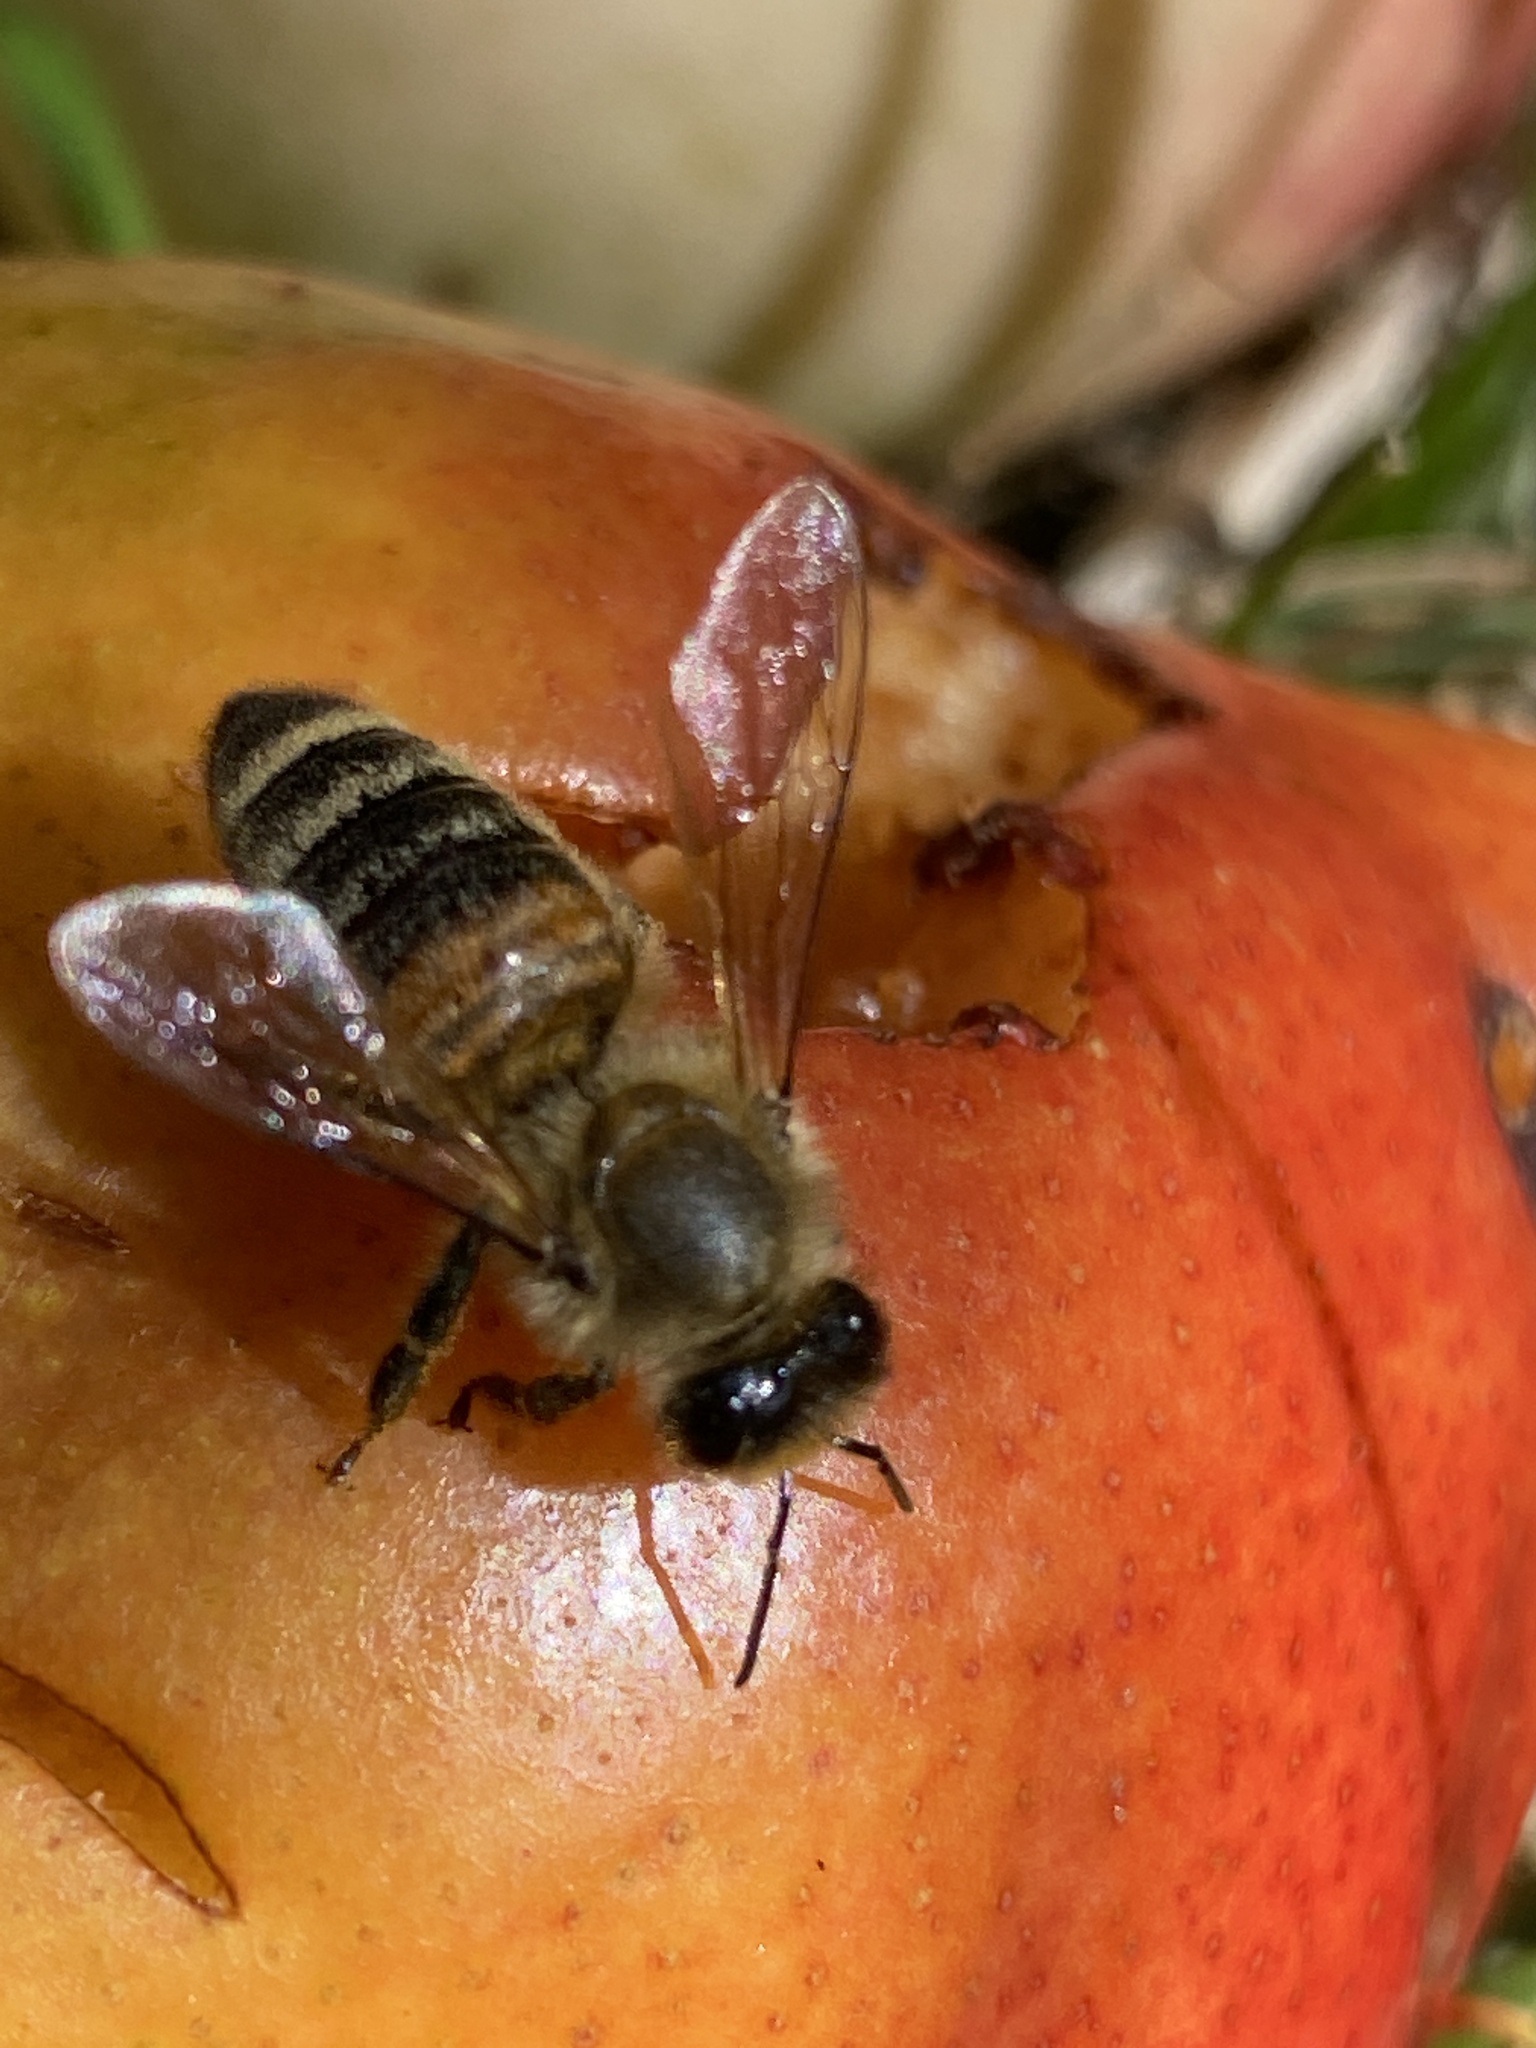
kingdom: Animalia
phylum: Arthropoda
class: Insecta
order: Hymenoptera
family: Apidae
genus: Apis
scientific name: Apis mellifera
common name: Honey bee
